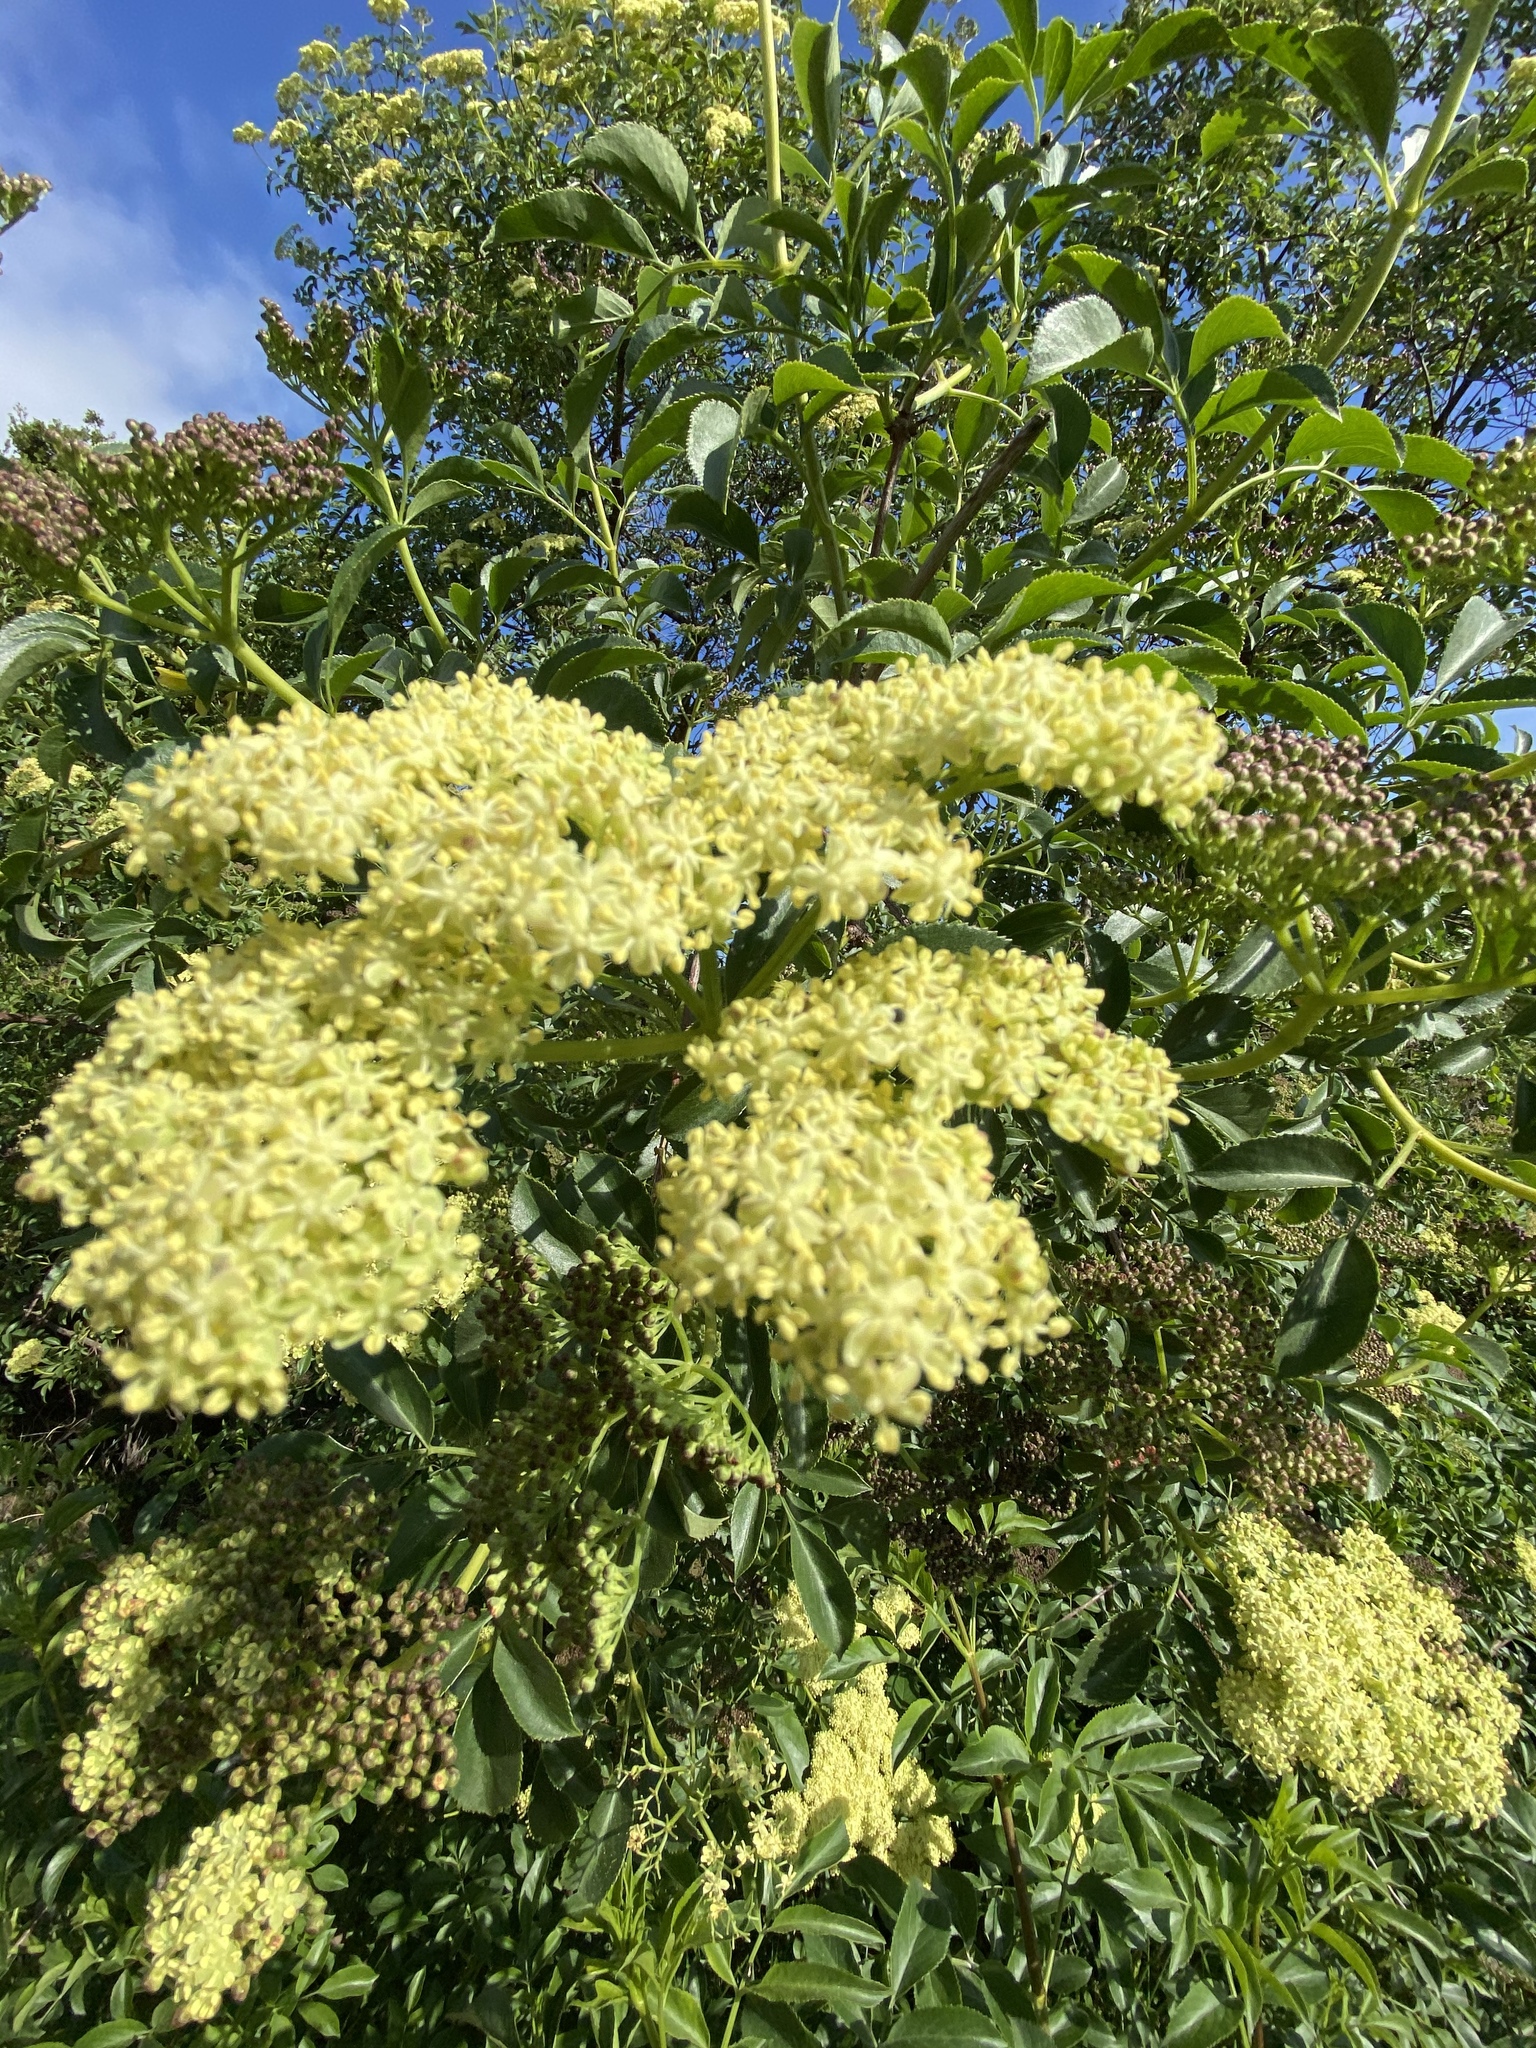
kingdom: Plantae
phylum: Tracheophyta
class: Magnoliopsida
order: Dipsacales
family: Viburnaceae
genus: Sambucus
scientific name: Sambucus cerulea
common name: Blue elder
